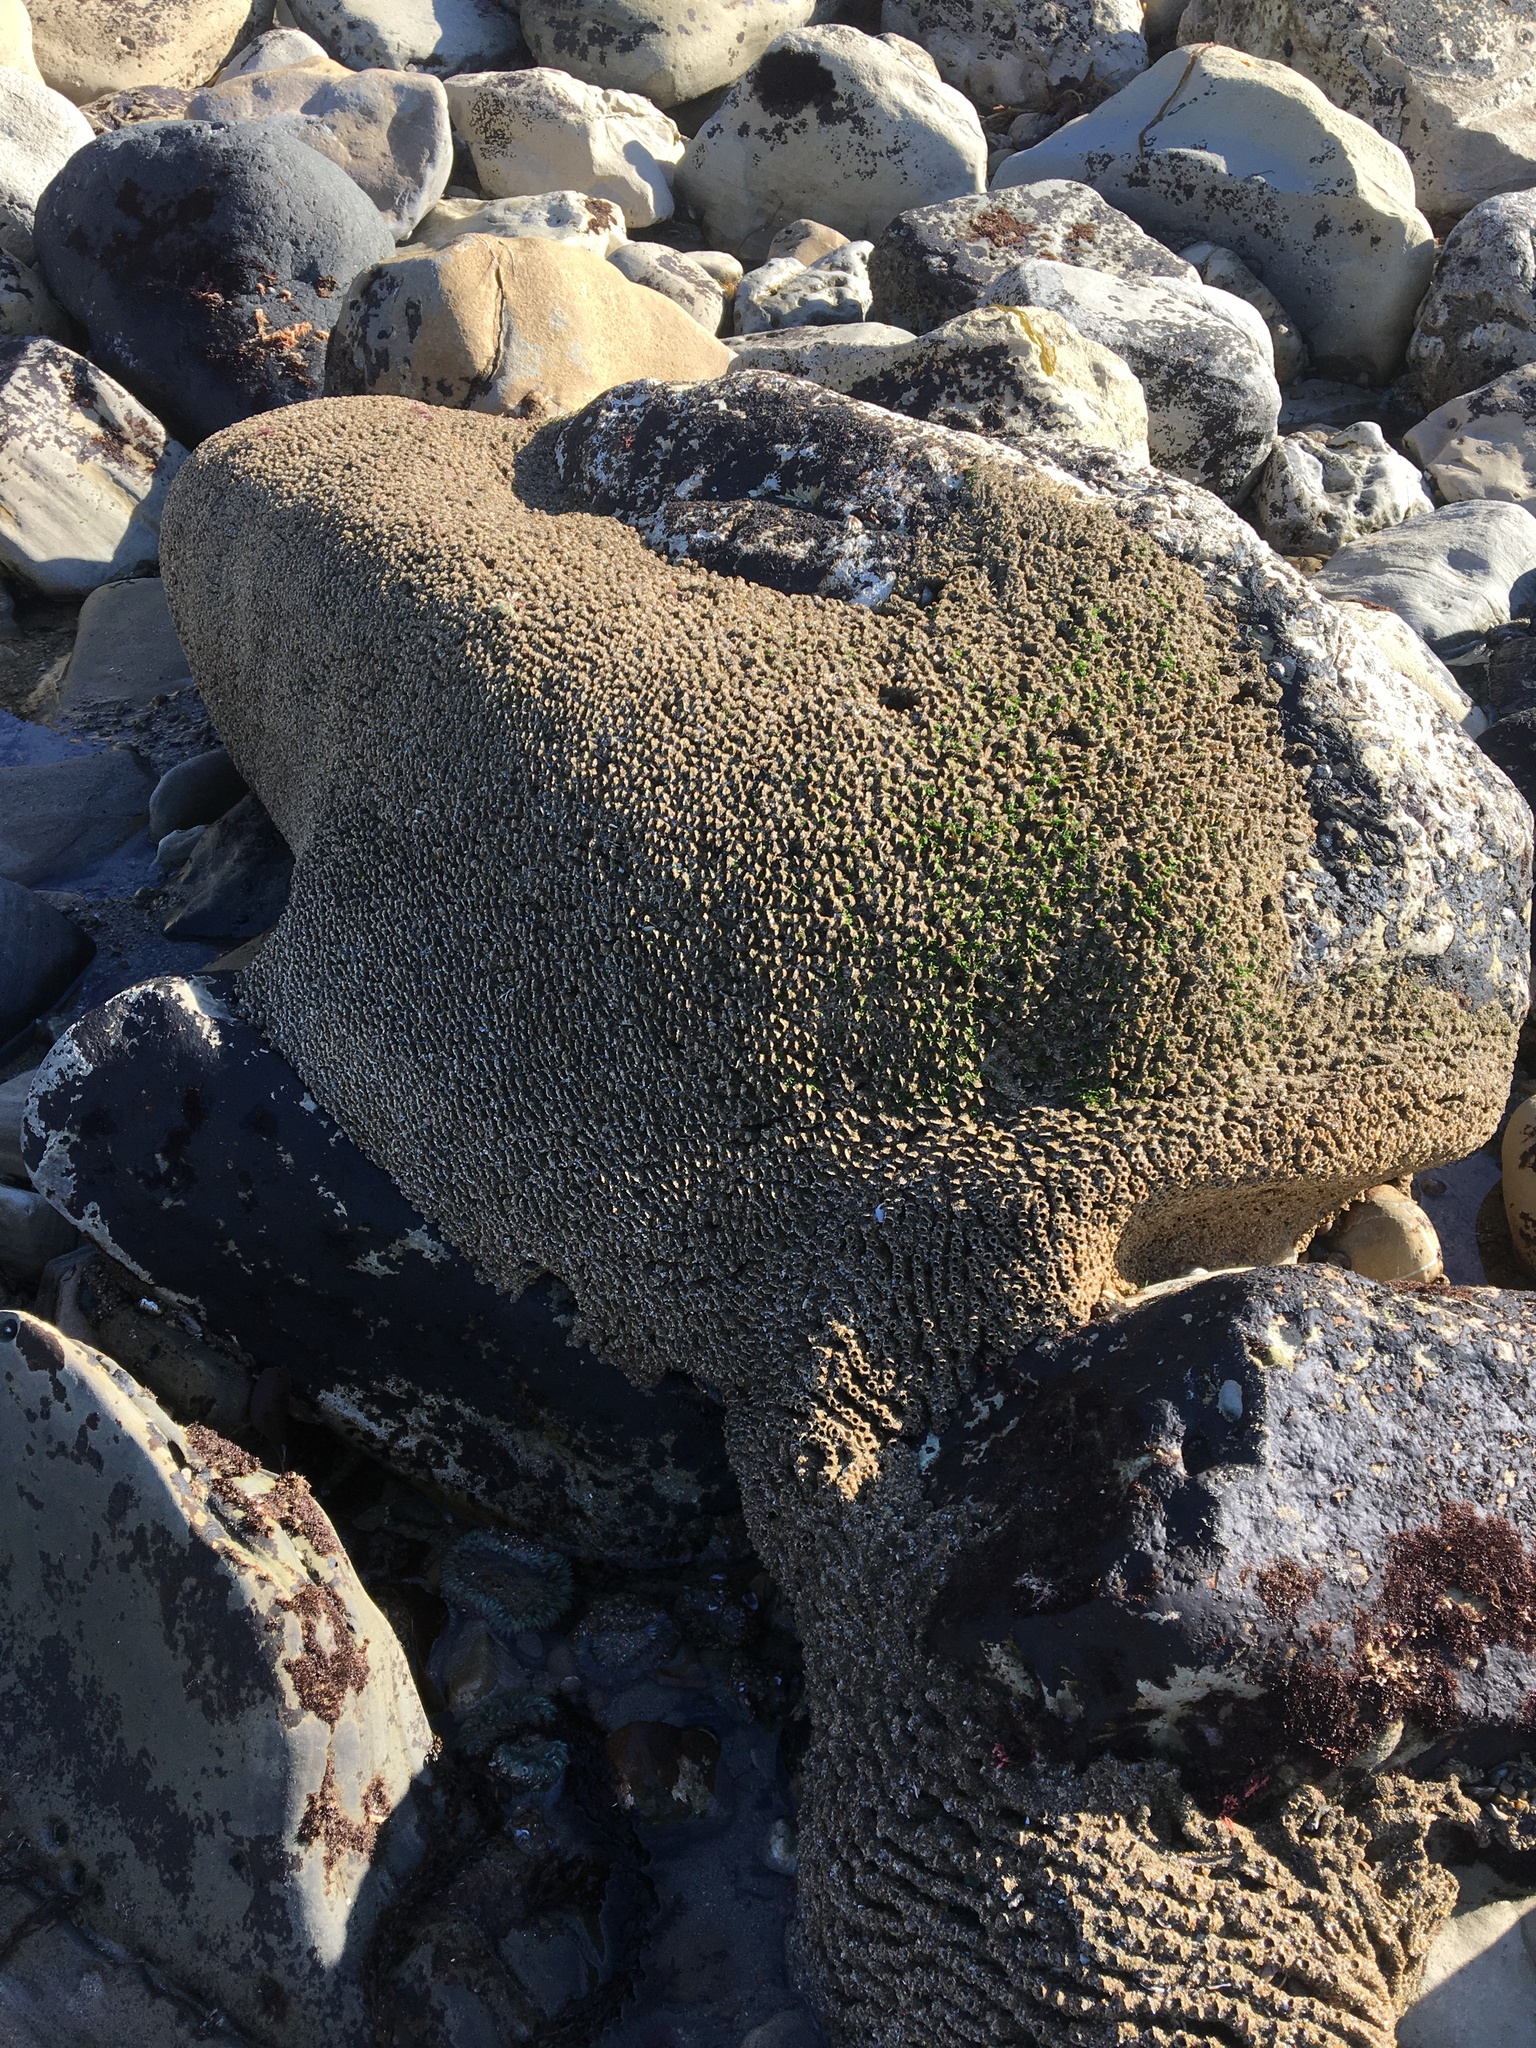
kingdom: Animalia
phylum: Annelida
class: Polychaeta
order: Sabellida
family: Sabellariidae
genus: Phragmatopoma
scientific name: Phragmatopoma californica
